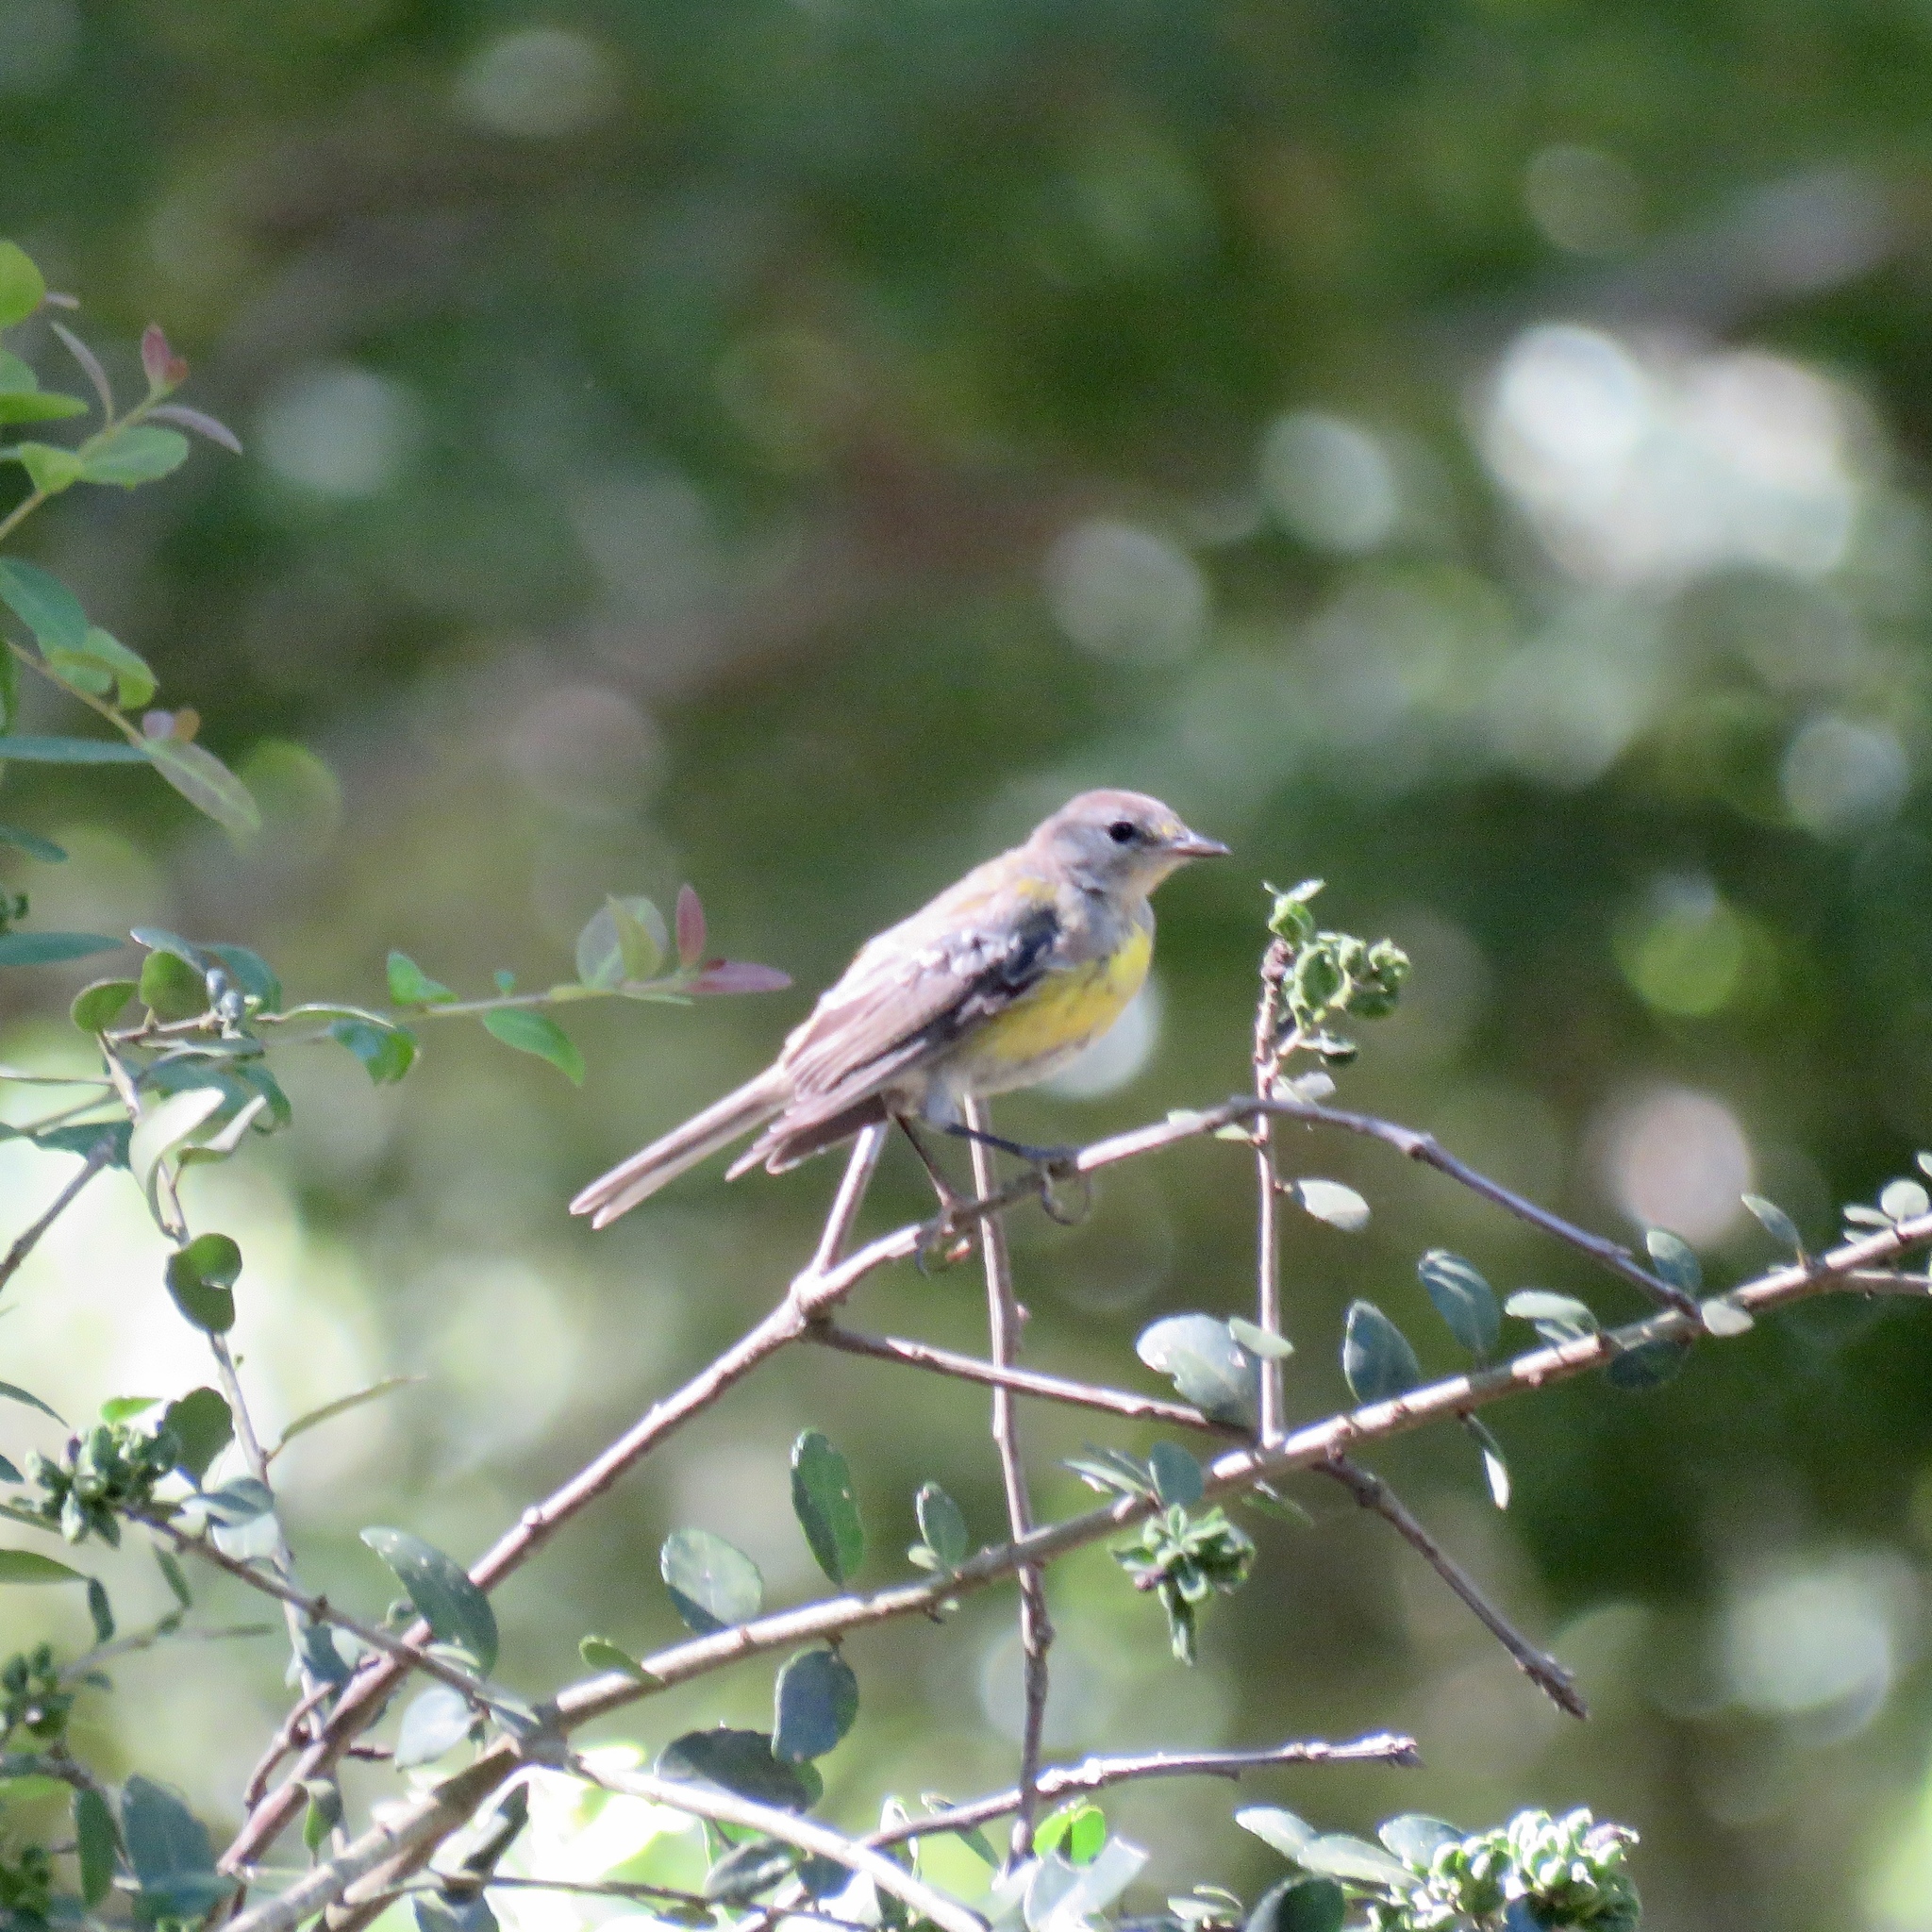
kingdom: Animalia
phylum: Chordata
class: Aves
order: Passeriformes
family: Parulidae
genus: Setophaga
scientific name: Setophaga pinus
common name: Pine warbler
